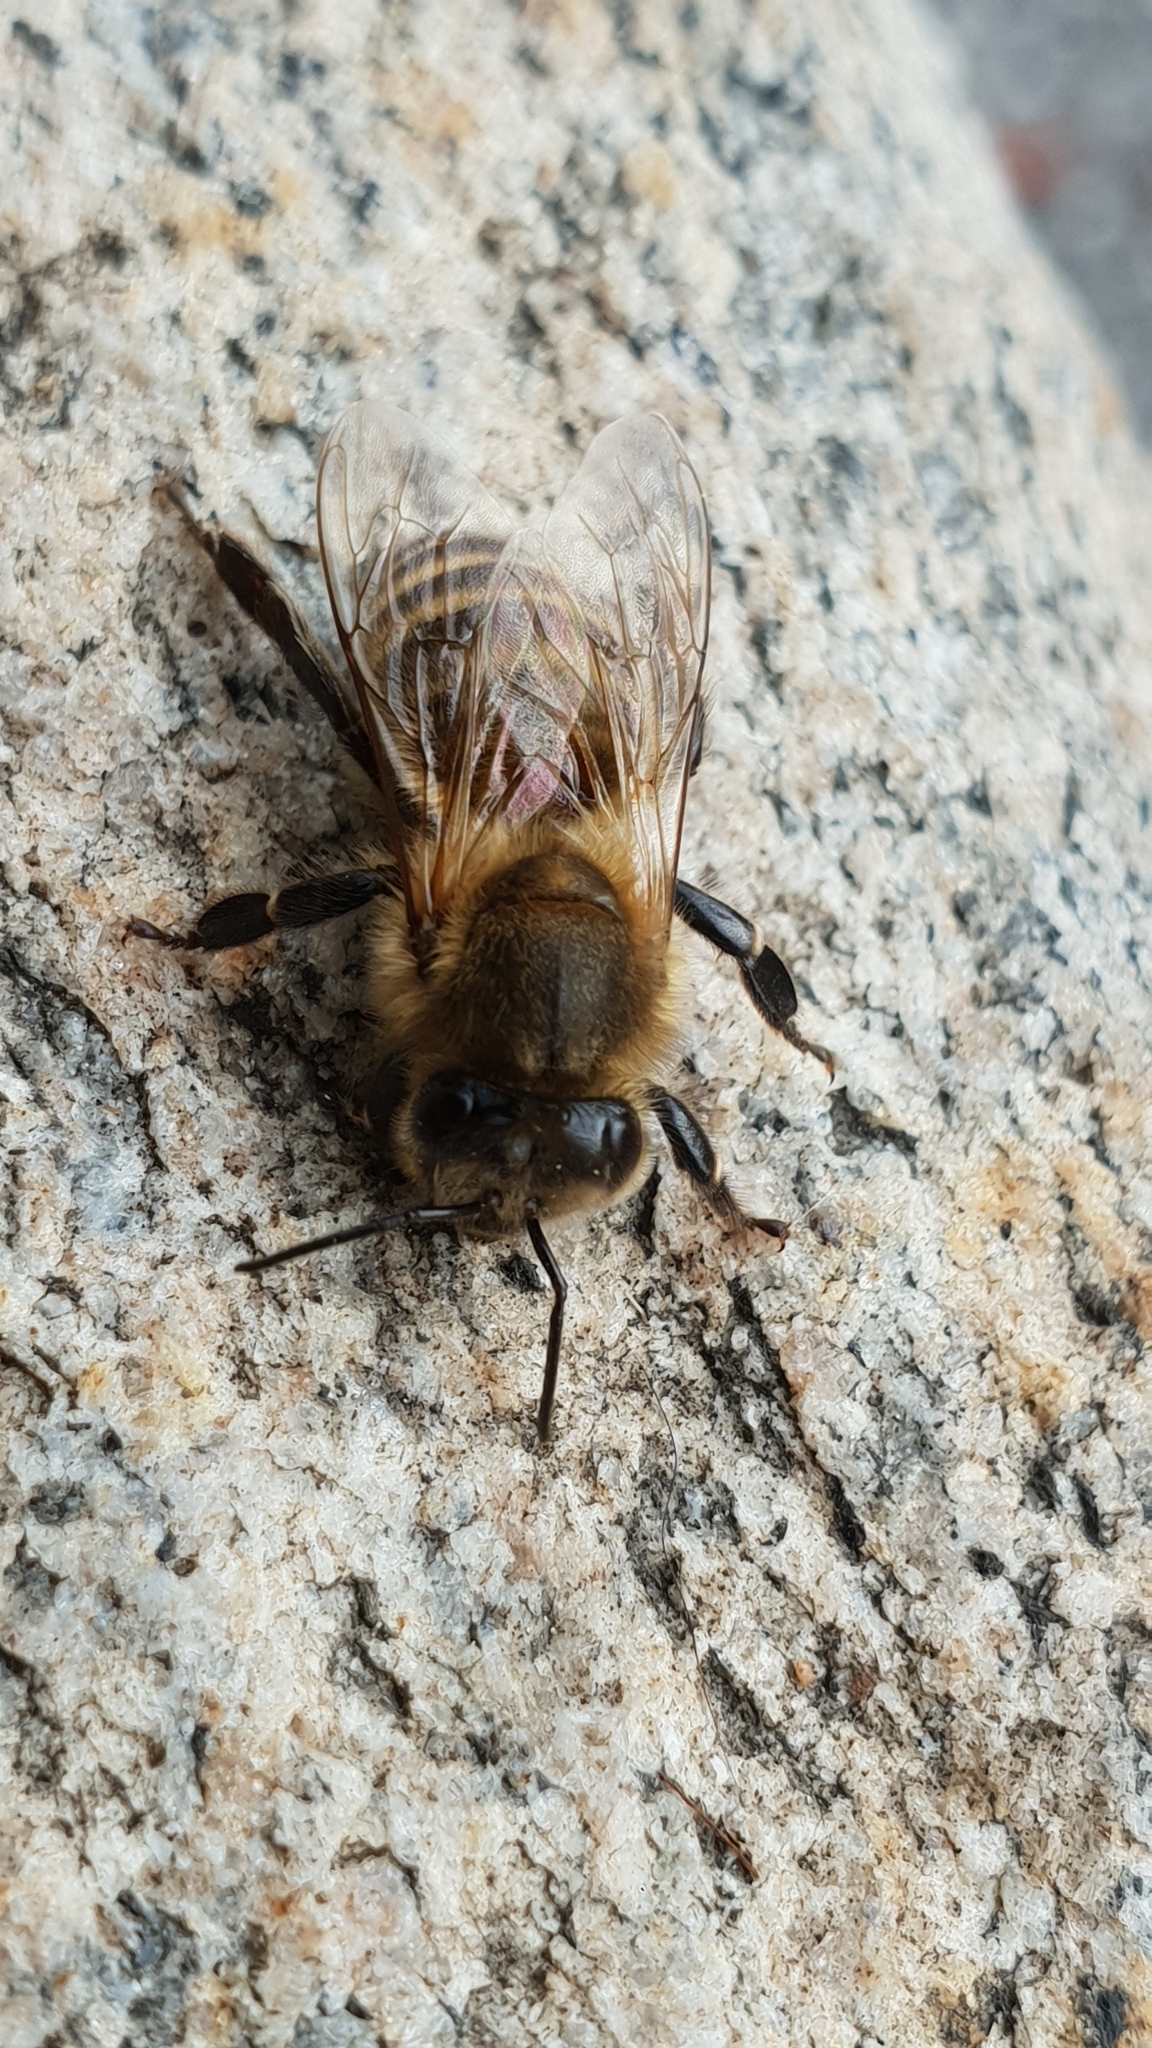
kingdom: Animalia
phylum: Arthropoda
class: Insecta
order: Hymenoptera
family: Apidae
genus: Apis
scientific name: Apis mellifera
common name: Honey bee
